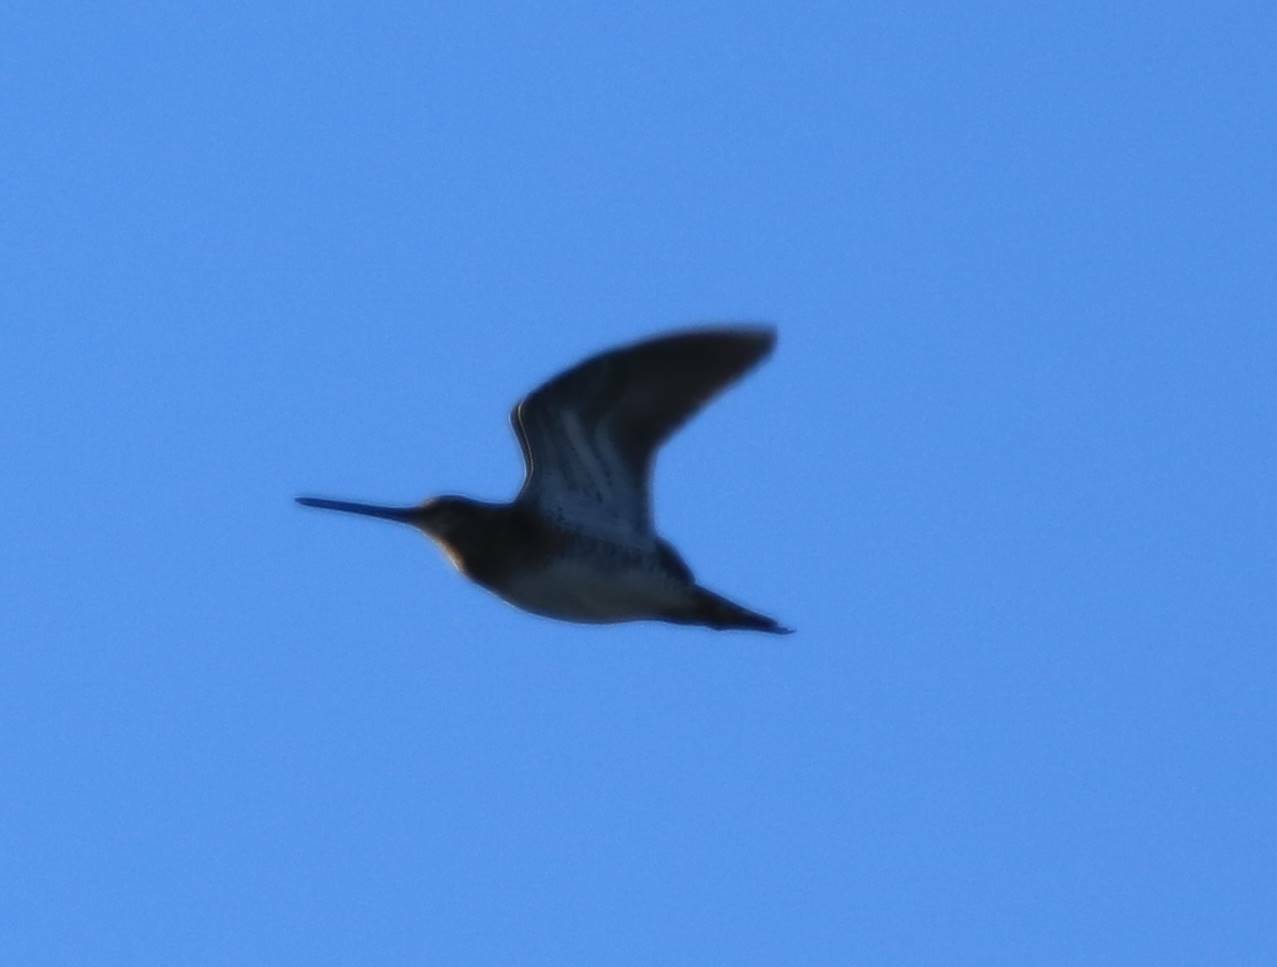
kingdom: Animalia
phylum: Chordata
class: Aves
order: Charadriiformes
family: Scolopacidae
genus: Gallinago
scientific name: Gallinago gallinago
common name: Common snipe
